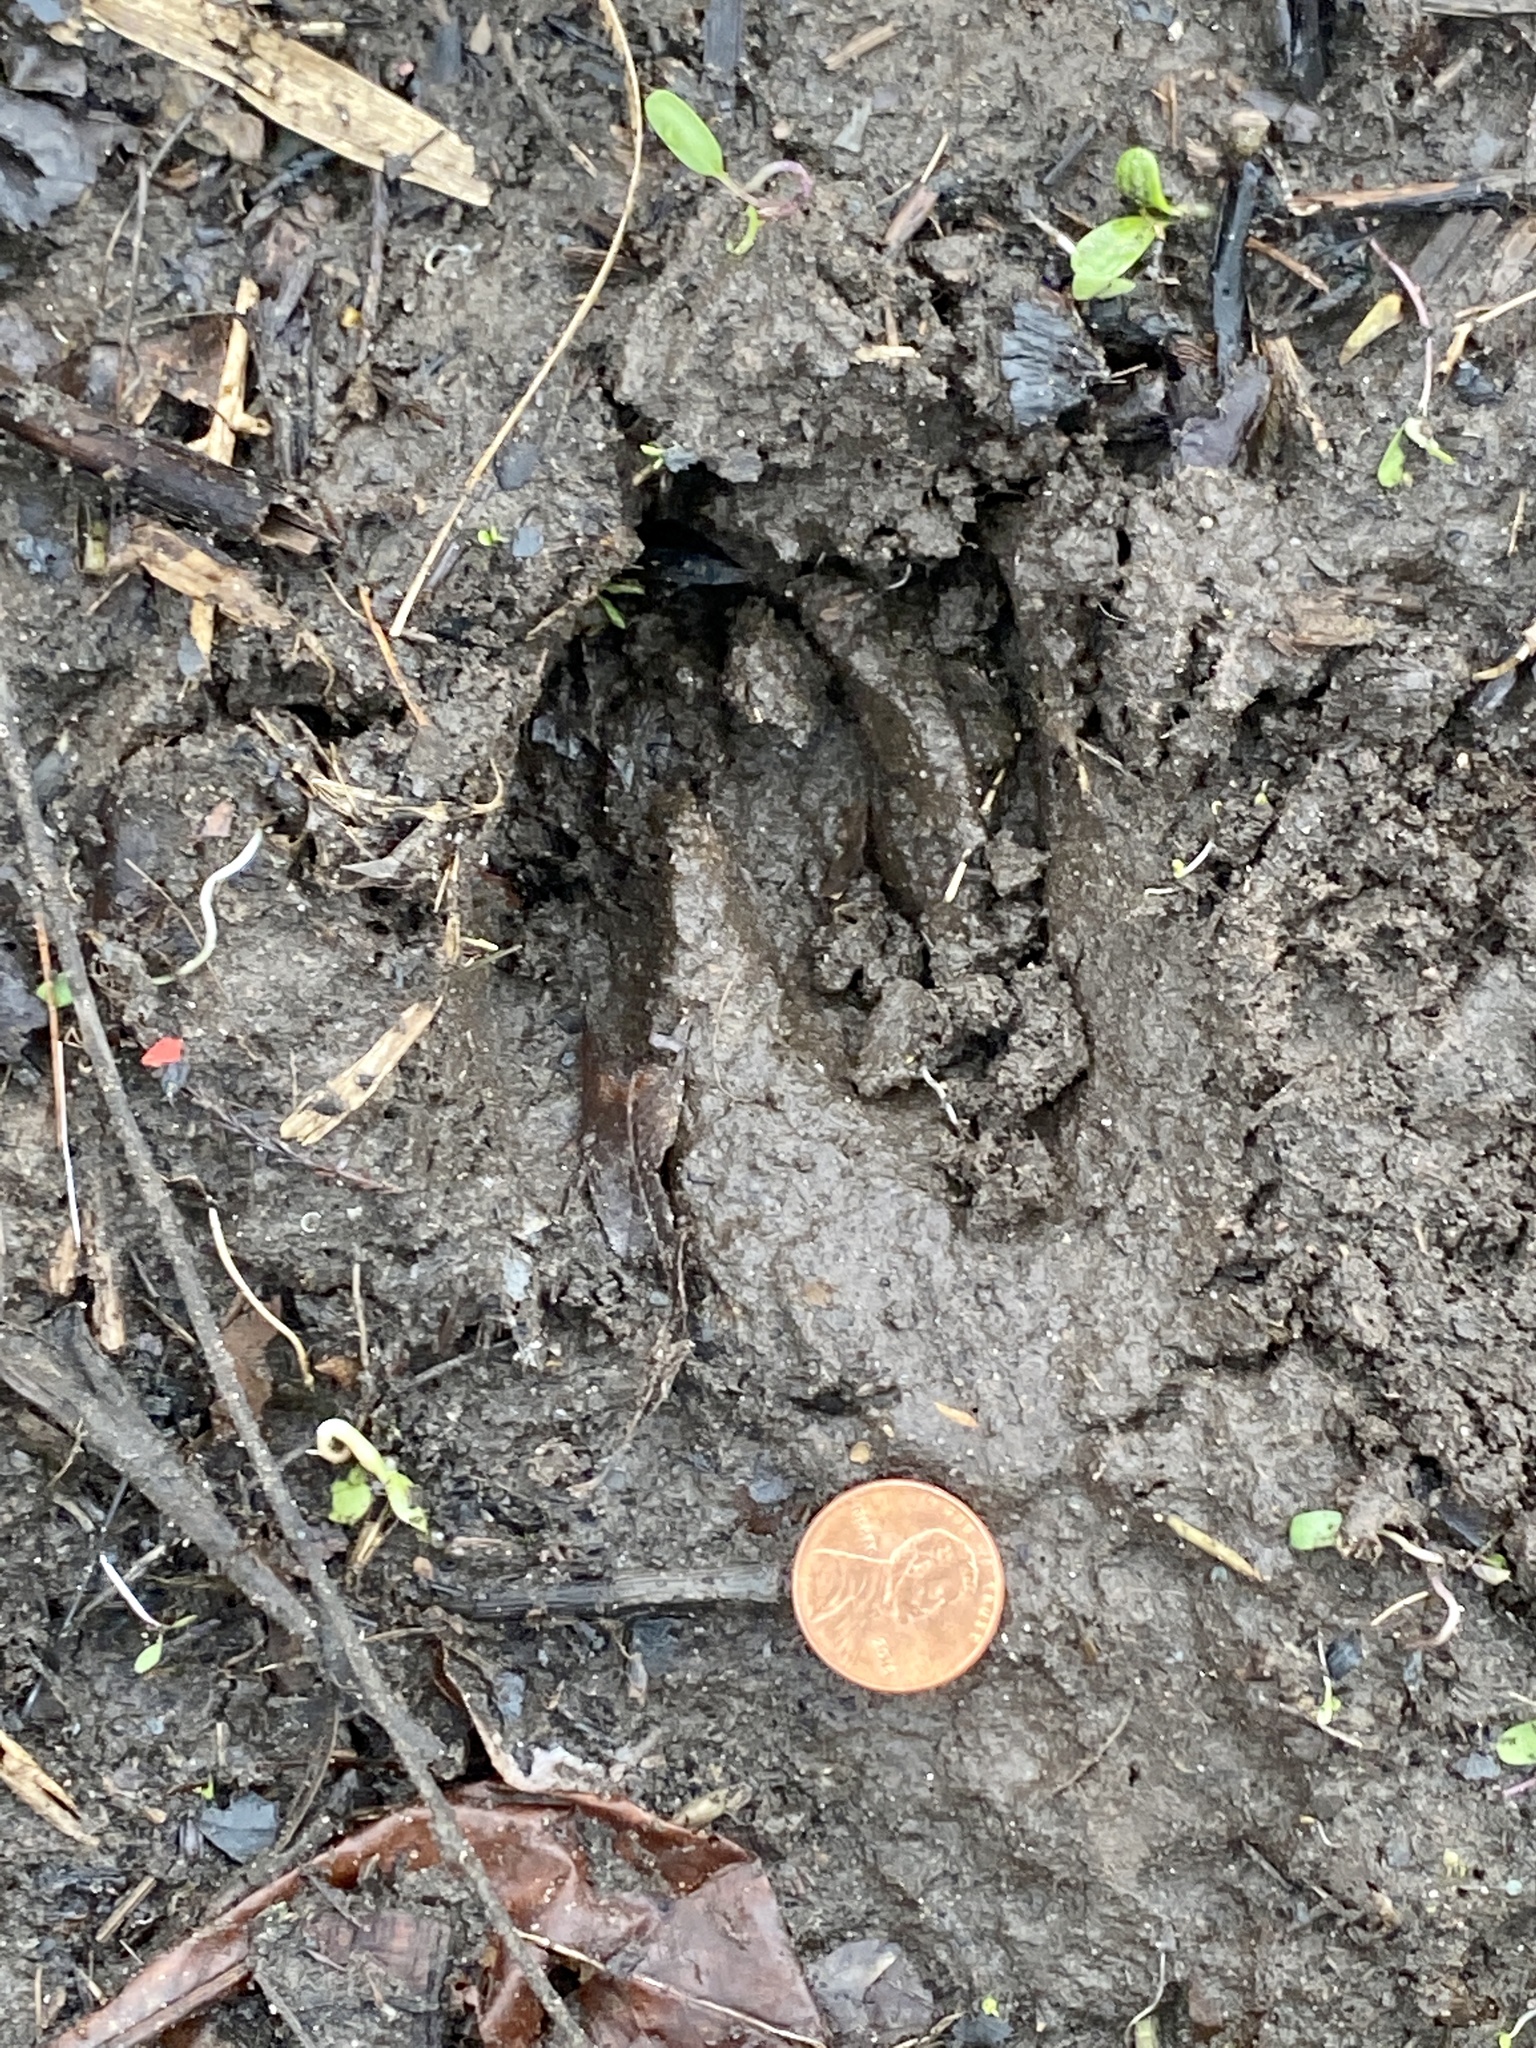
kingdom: Animalia
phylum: Chordata
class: Mammalia
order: Artiodactyla
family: Cervidae
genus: Odocoileus
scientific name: Odocoileus virginianus
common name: White-tailed deer
